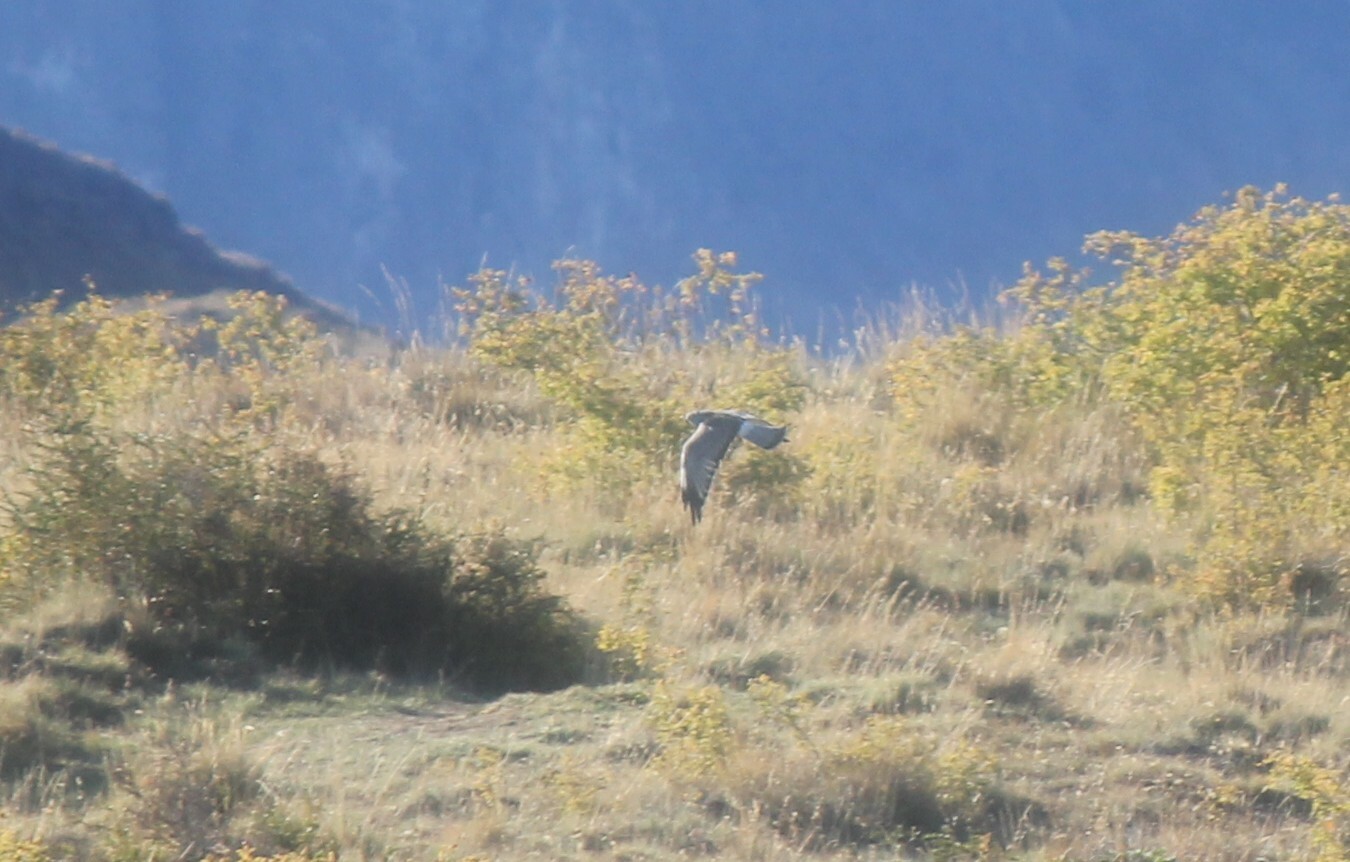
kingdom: Animalia
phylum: Chordata
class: Aves
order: Accipitriformes
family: Accipitridae
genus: Circus
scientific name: Circus cinereus
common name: Cinereous harrier
